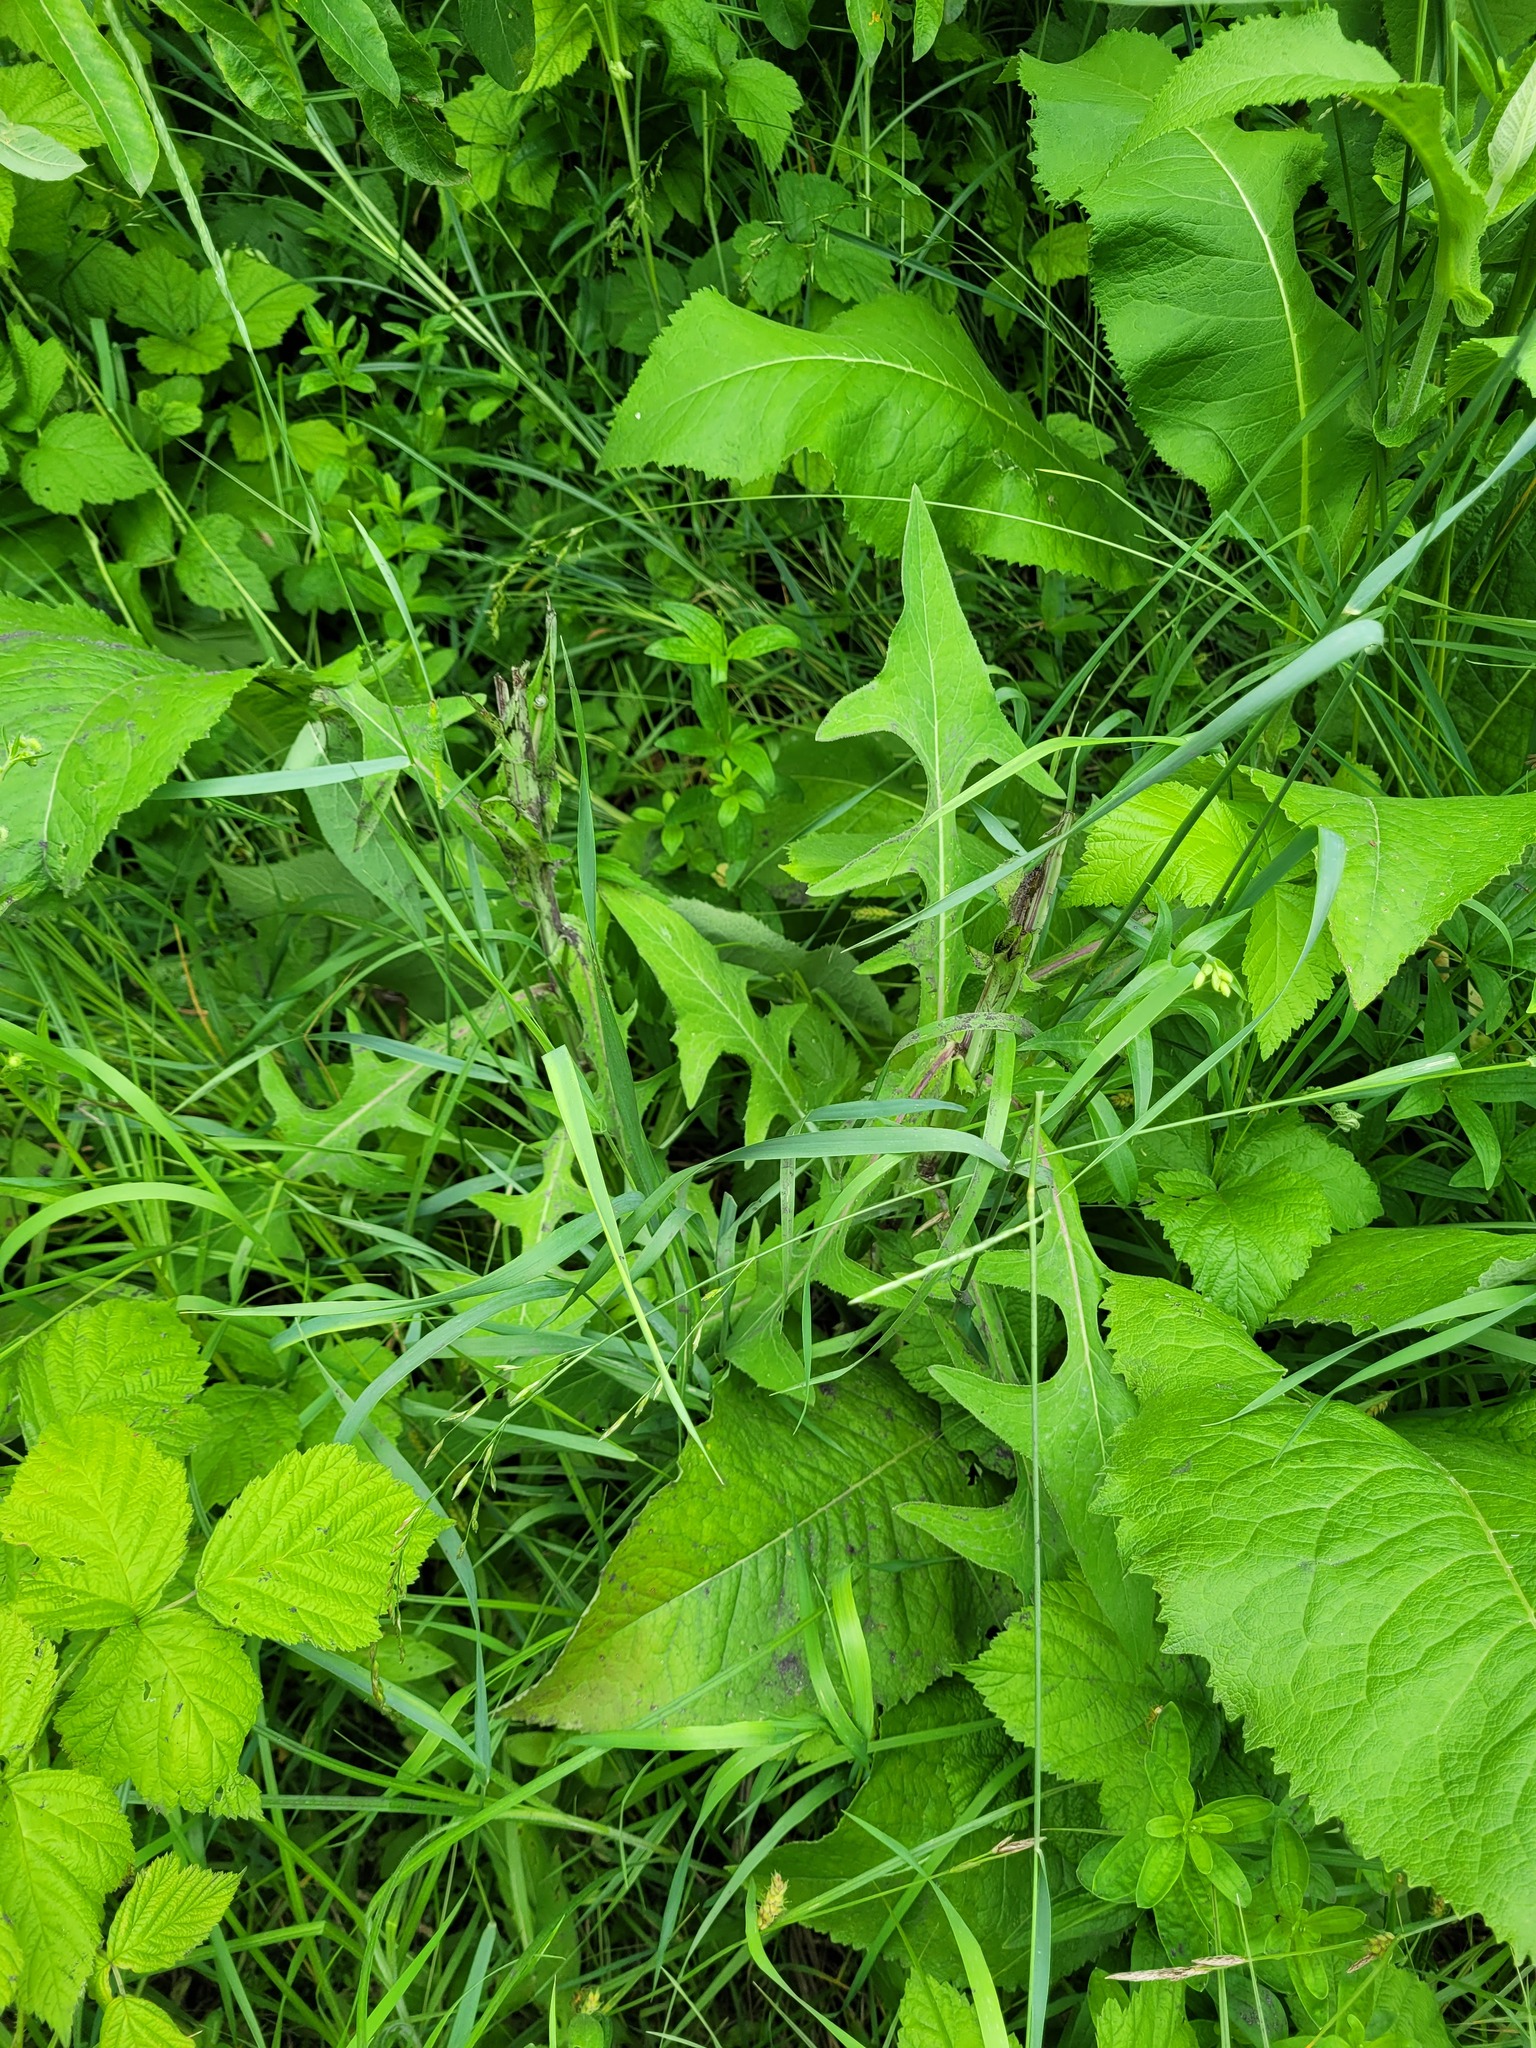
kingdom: Plantae
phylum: Tracheophyta
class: Magnoliopsida
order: Asterales
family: Asteraceae
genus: Sonchus
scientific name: Sonchus palustris
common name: Marsh sow-thistle
